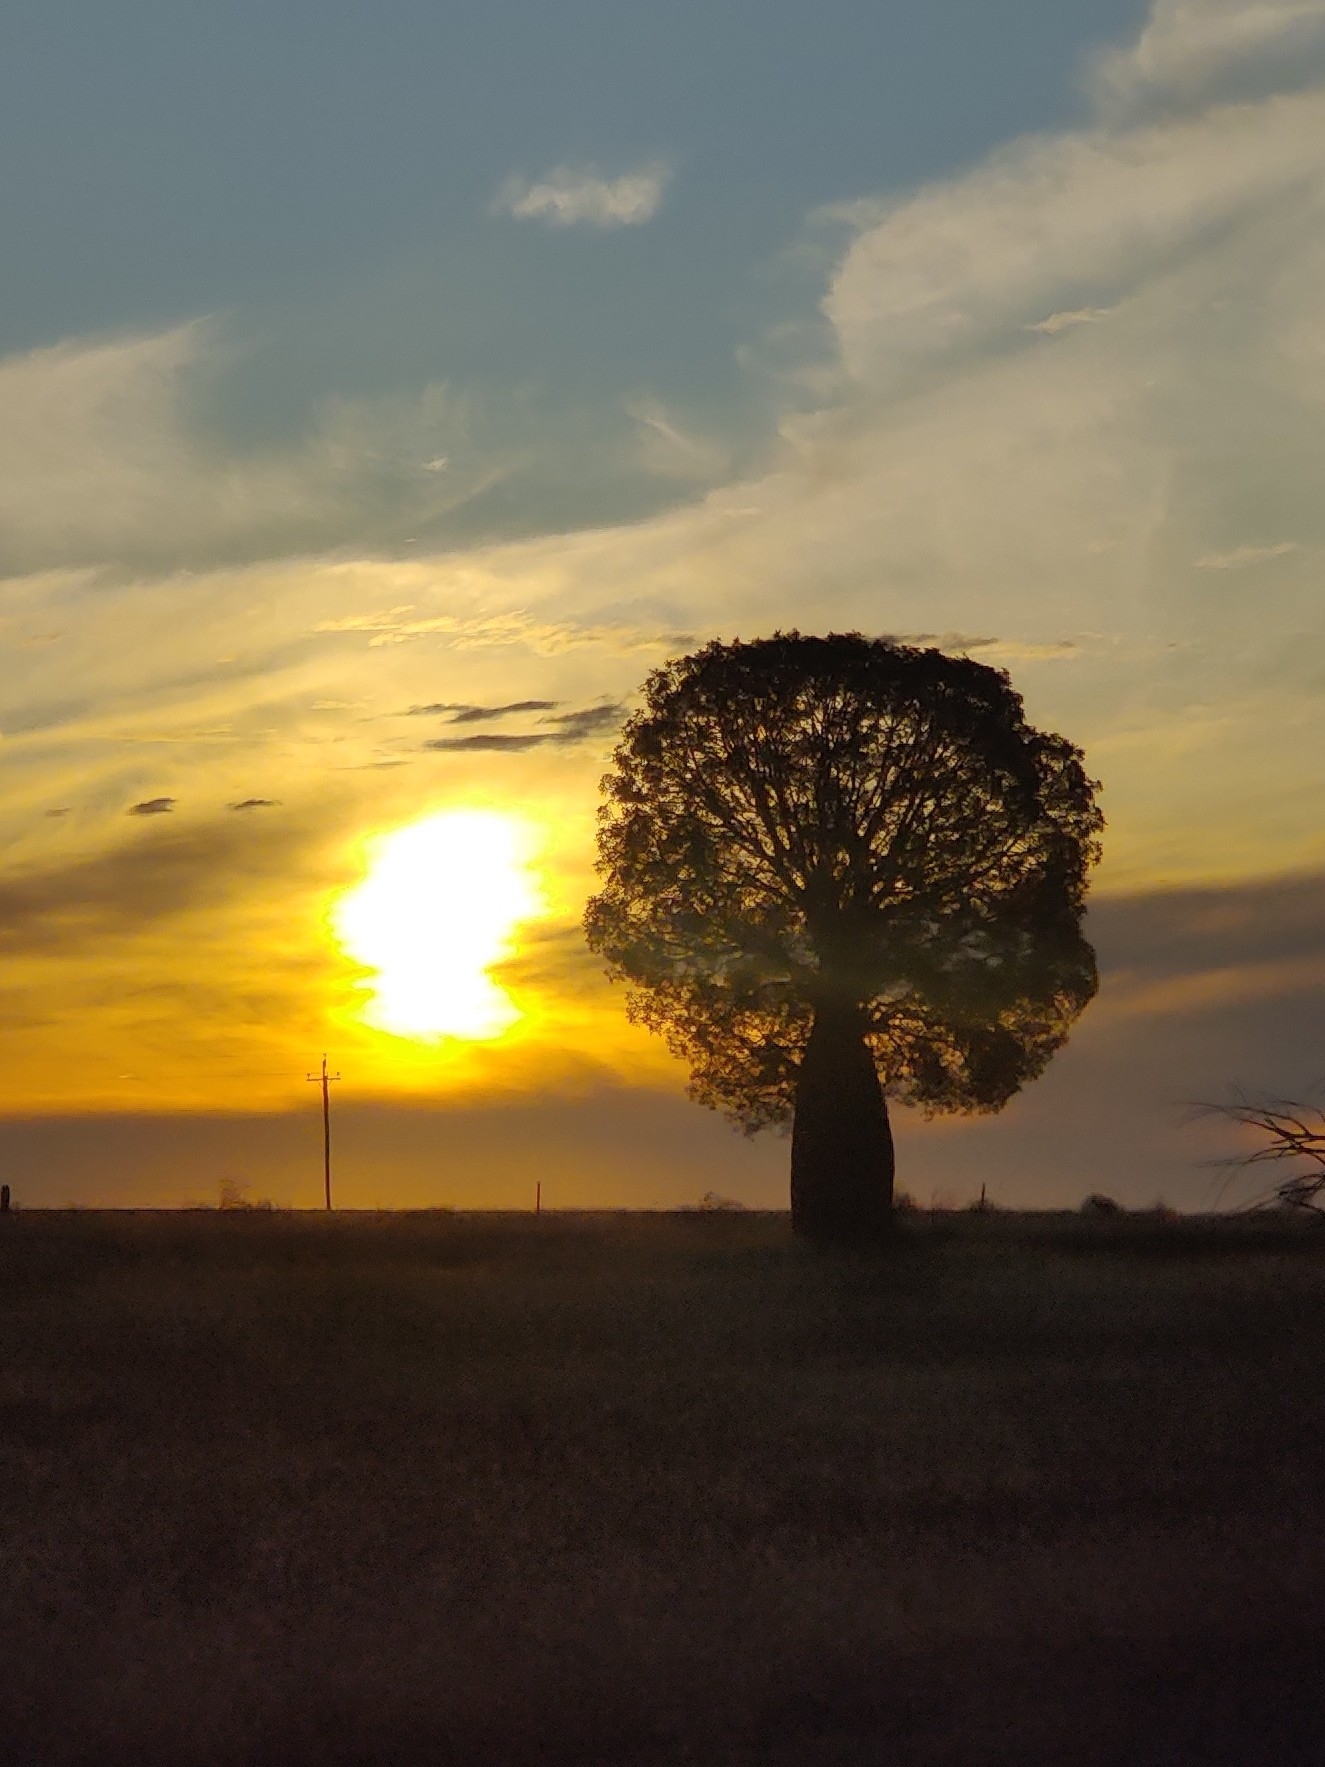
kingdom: Plantae
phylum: Tracheophyta
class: Magnoliopsida
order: Malvales
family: Malvaceae
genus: Brachychiton
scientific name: Brachychiton rupestris
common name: Queensland bottletree
